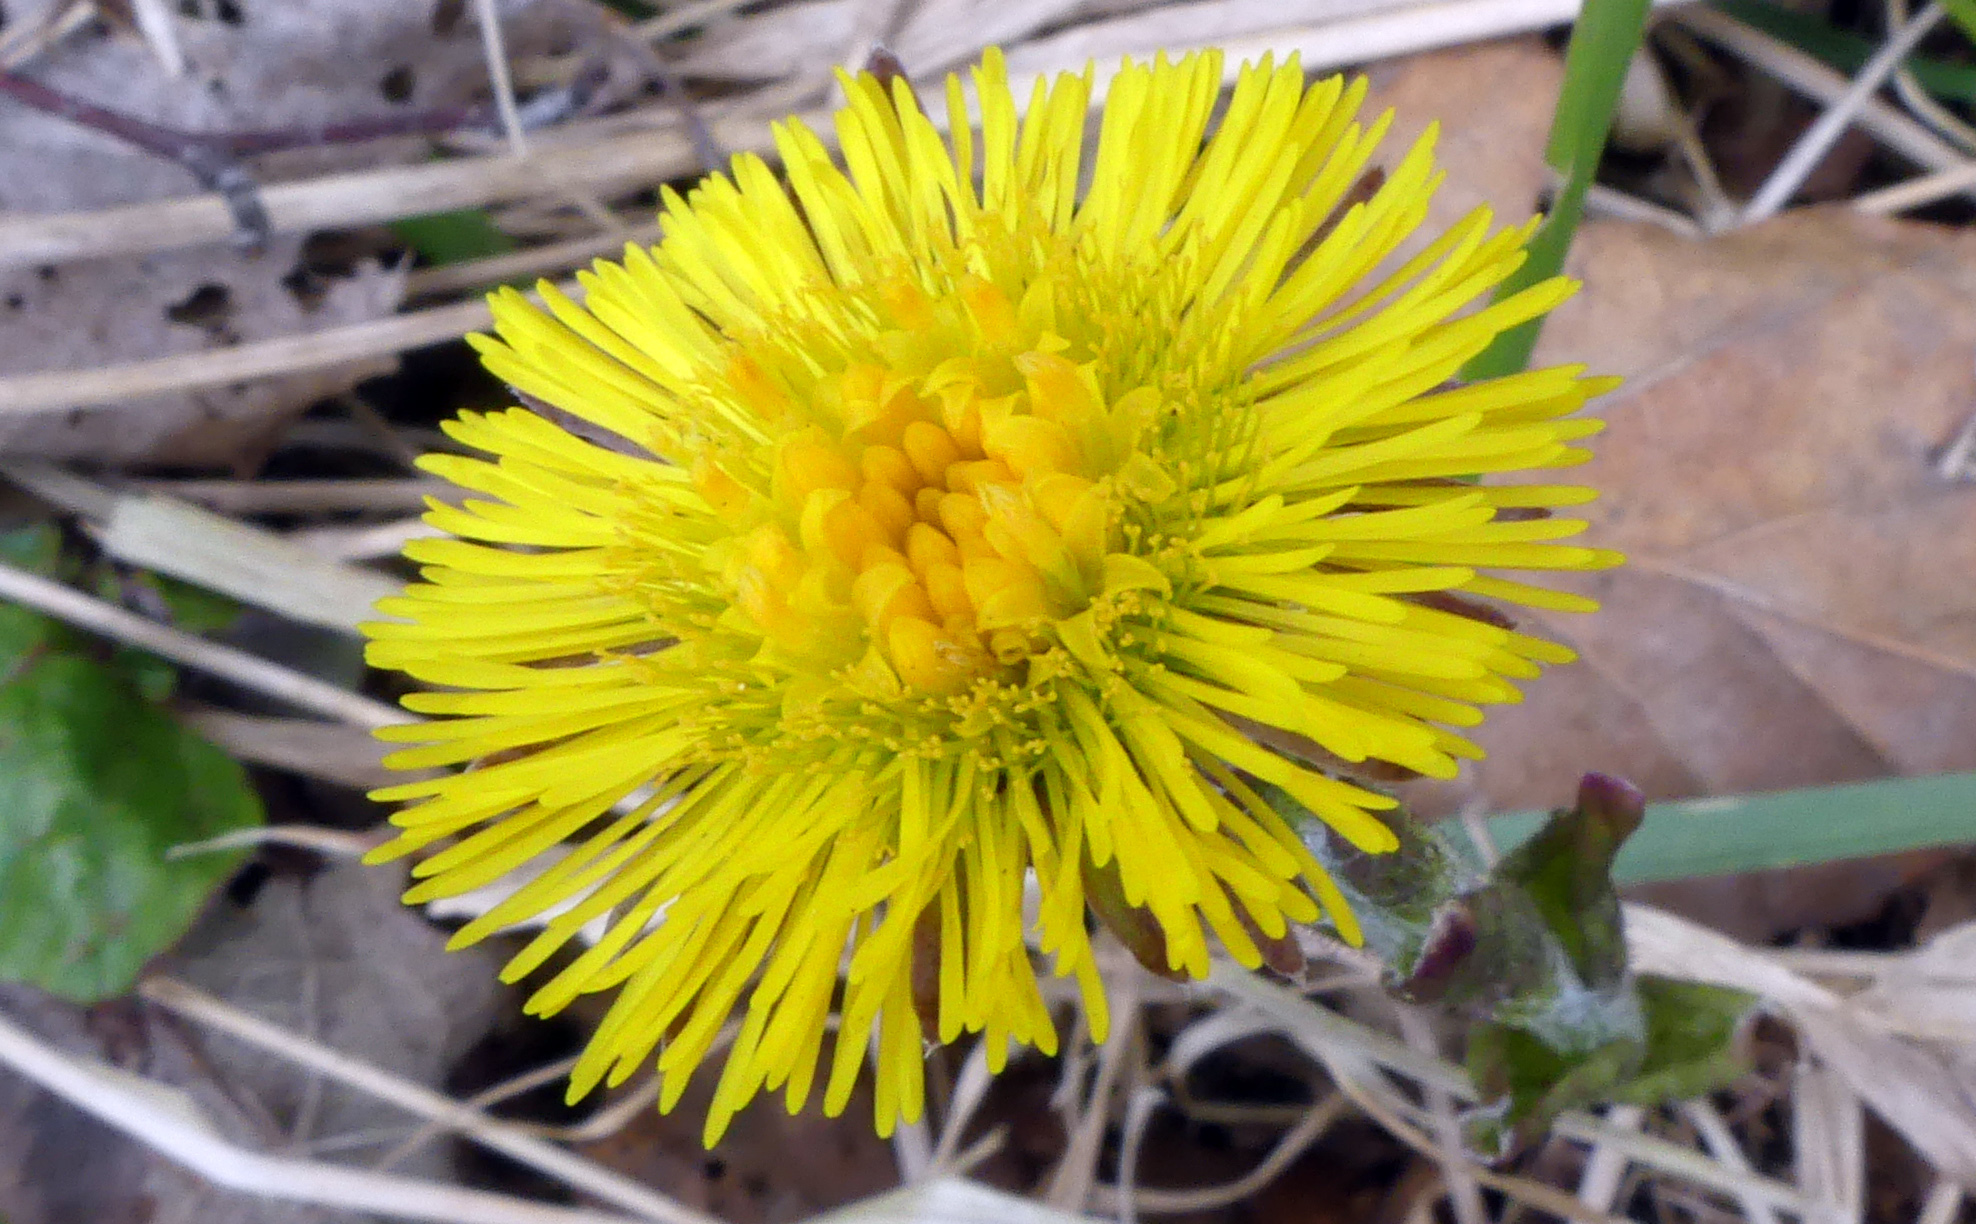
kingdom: Plantae
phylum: Tracheophyta
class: Magnoliopsida
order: Asterales
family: Asteraceae
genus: Tussilago
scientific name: Tussilago farfara
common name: Coltsfoot
